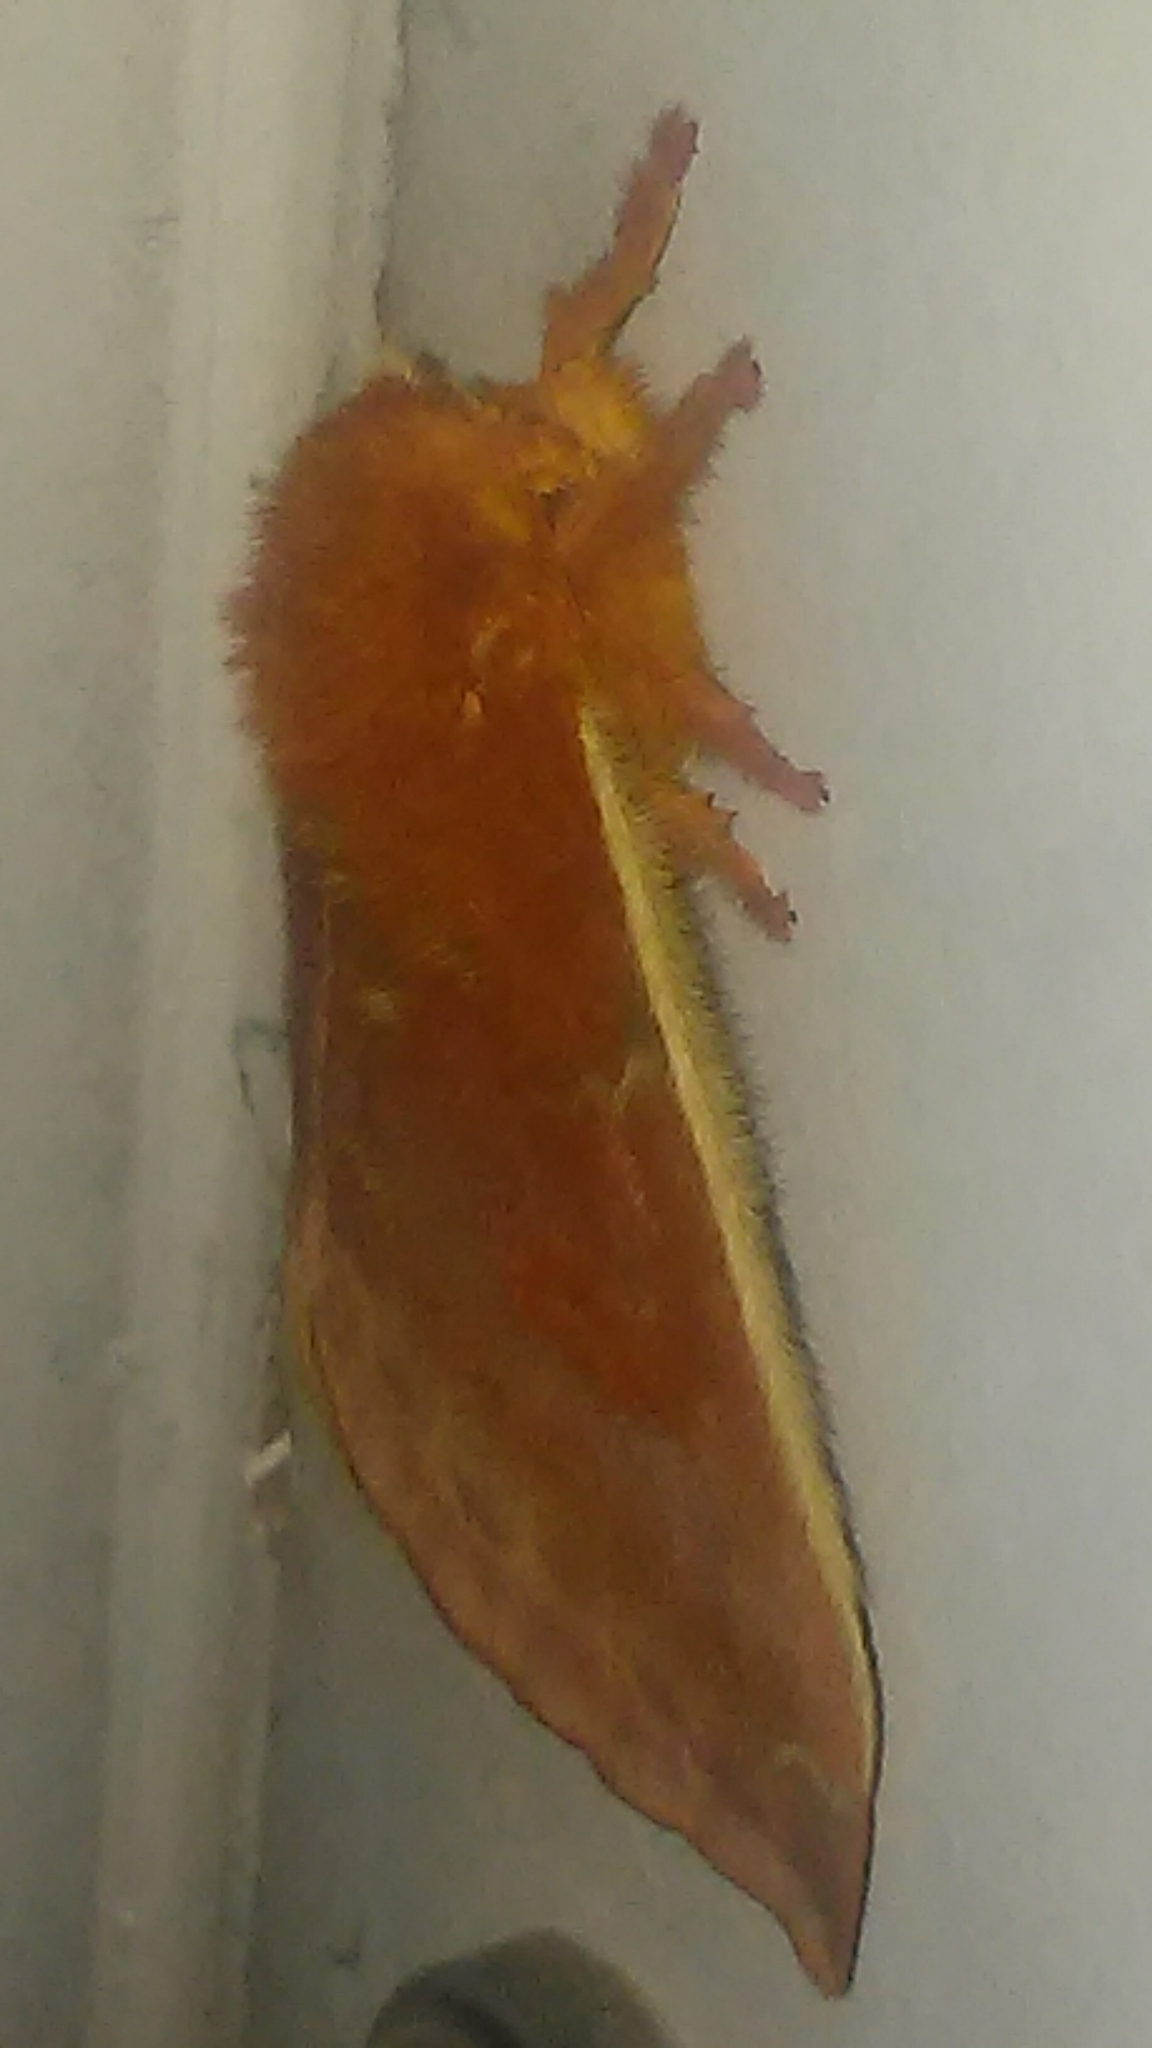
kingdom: Animalia
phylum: Arthropoda
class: Insecta
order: Lepidoptera
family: Saturniidae
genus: Automeris
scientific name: Automeris io
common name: Io moth
